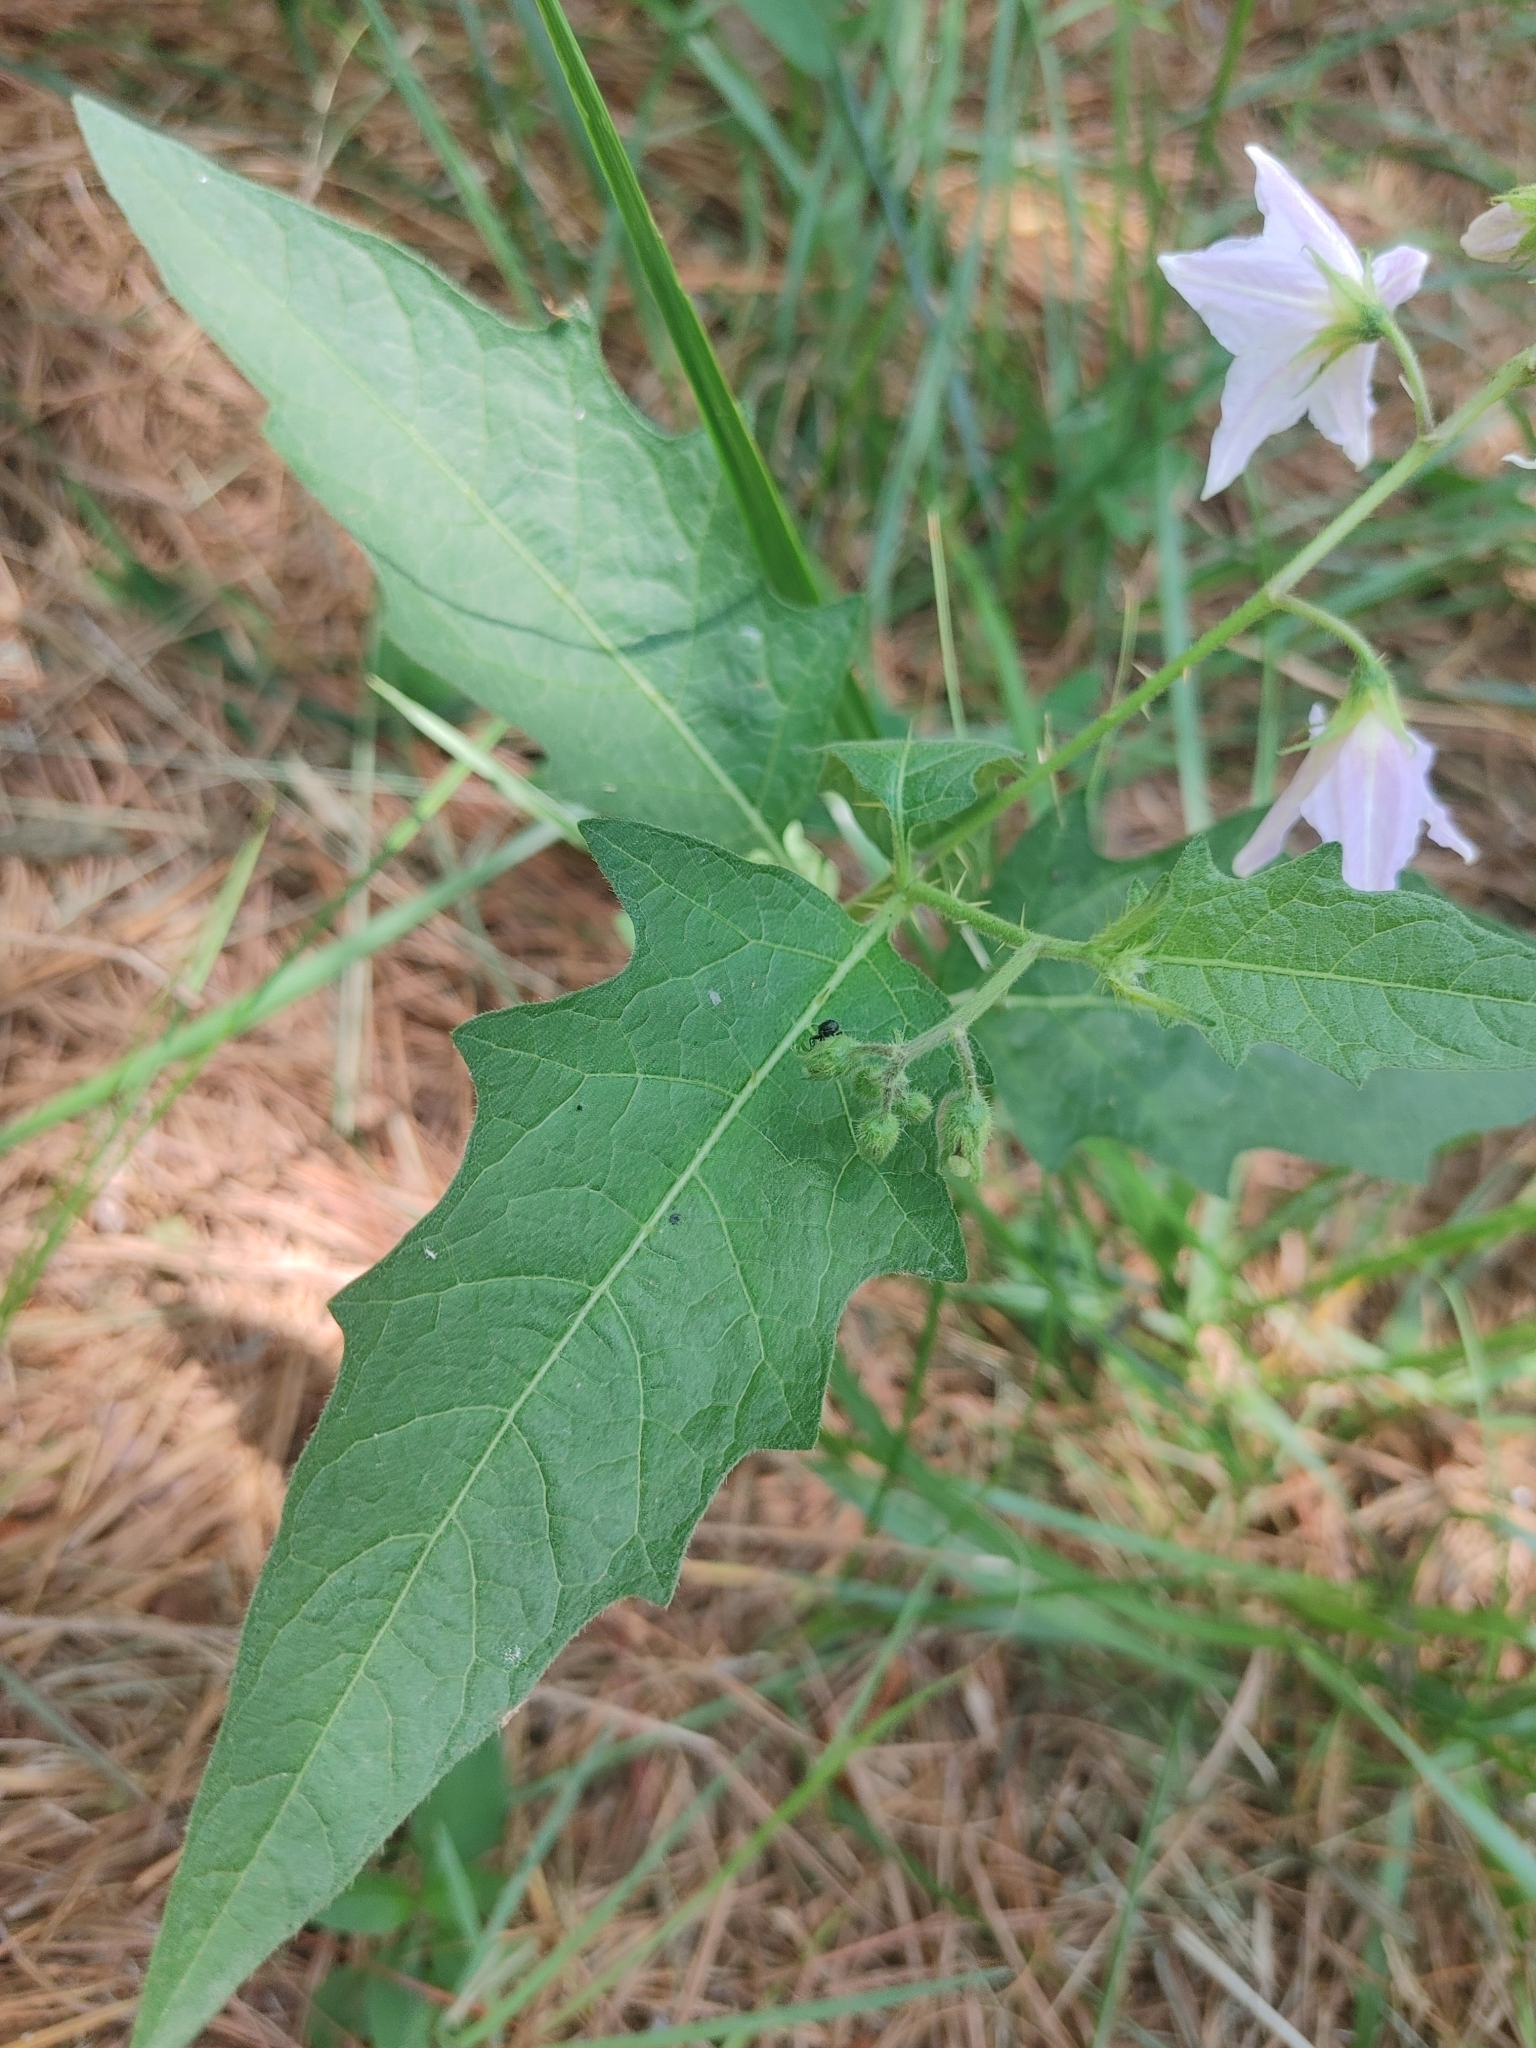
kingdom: Plantae
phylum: Tracheophyta
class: Magnoliopsida
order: Solanales
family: Solanaceae
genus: Solanum
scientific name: Solanum carolinense
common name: Horse-nettle
